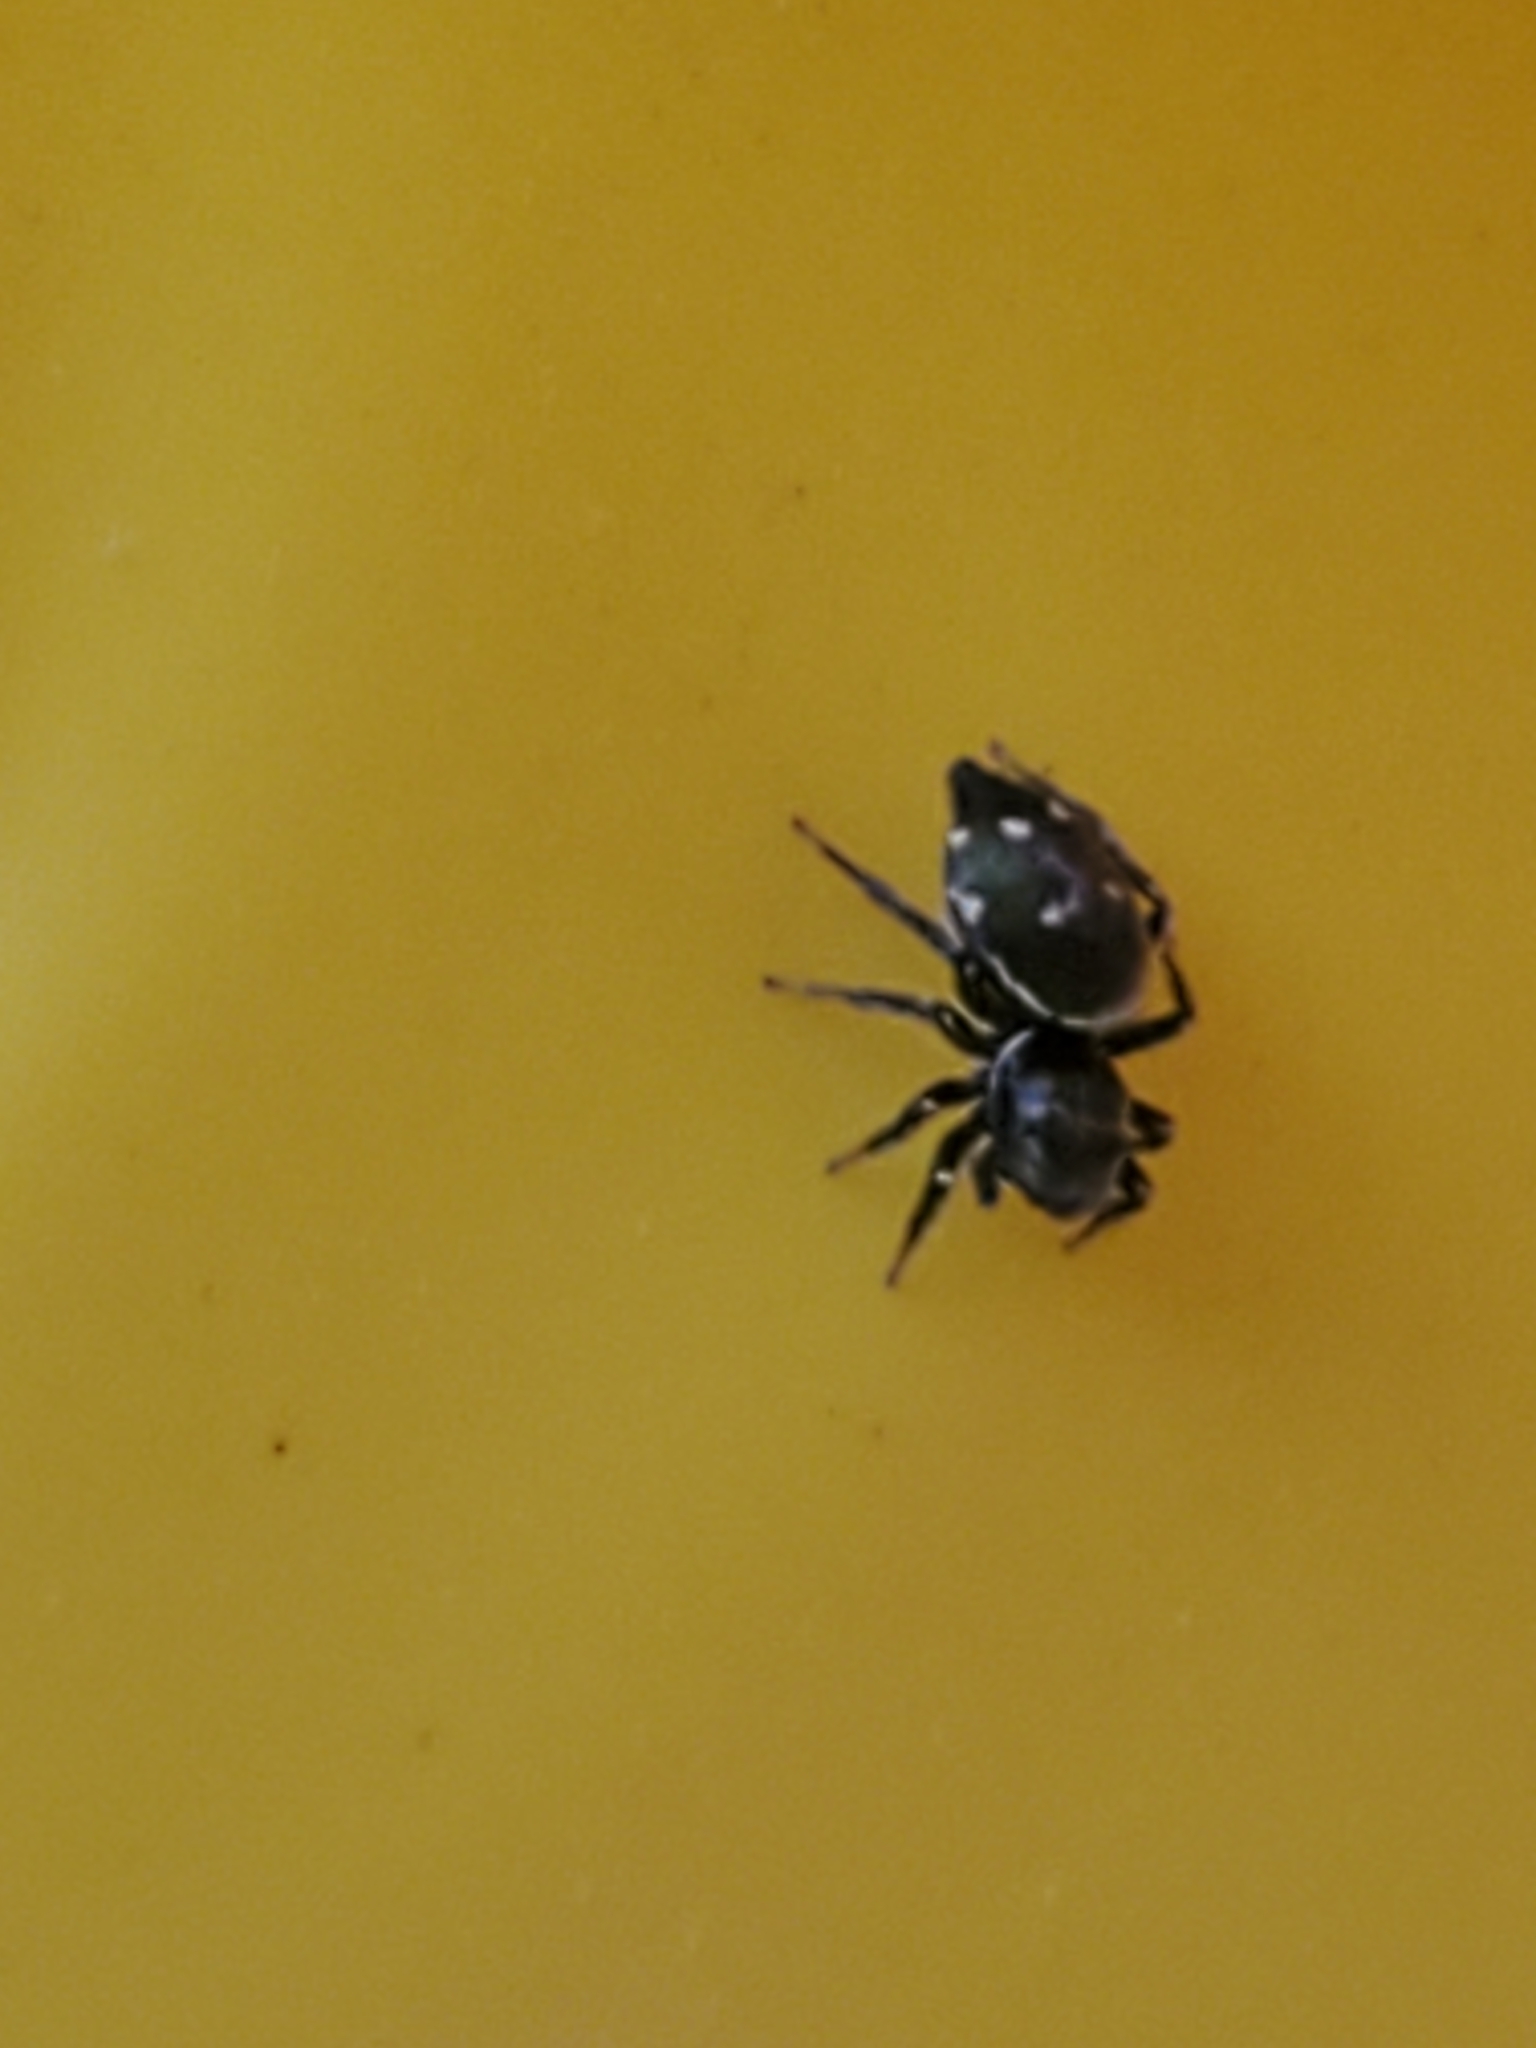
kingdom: Animalia
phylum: Arthropoda
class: Arachnida
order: Araneae
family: Salticidae
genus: Heliophanus
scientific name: Heliophanus kochii
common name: Sun jumping spider
